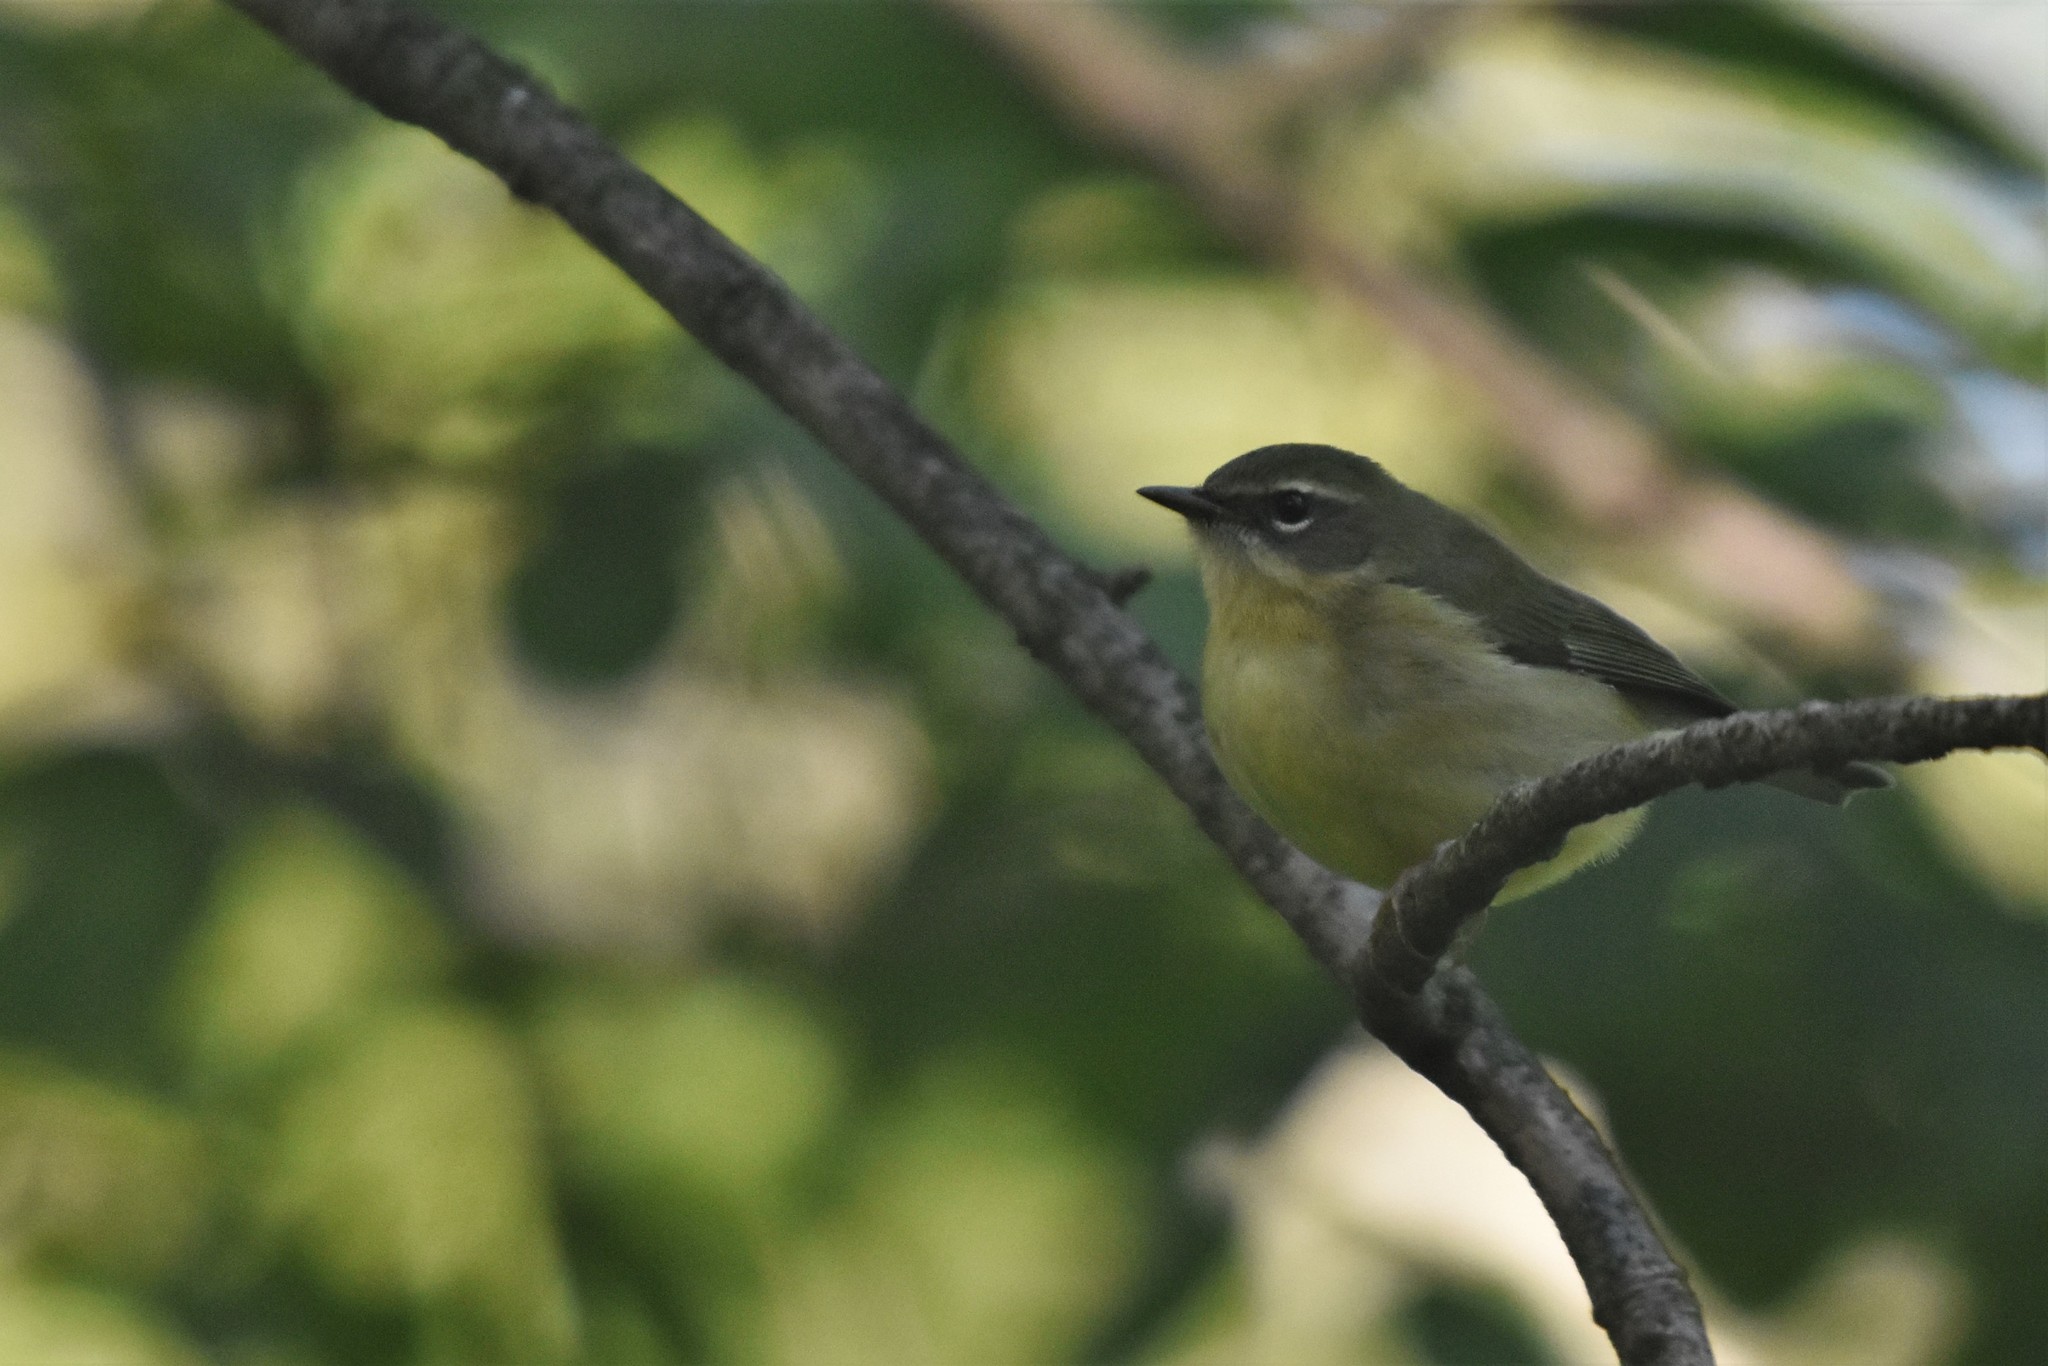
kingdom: Animalia
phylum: Chordata
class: Aves
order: Passeriformes
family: Parulidae
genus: Setophaga
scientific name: Setophaga caerulescens
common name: Black-throated blue warbler
